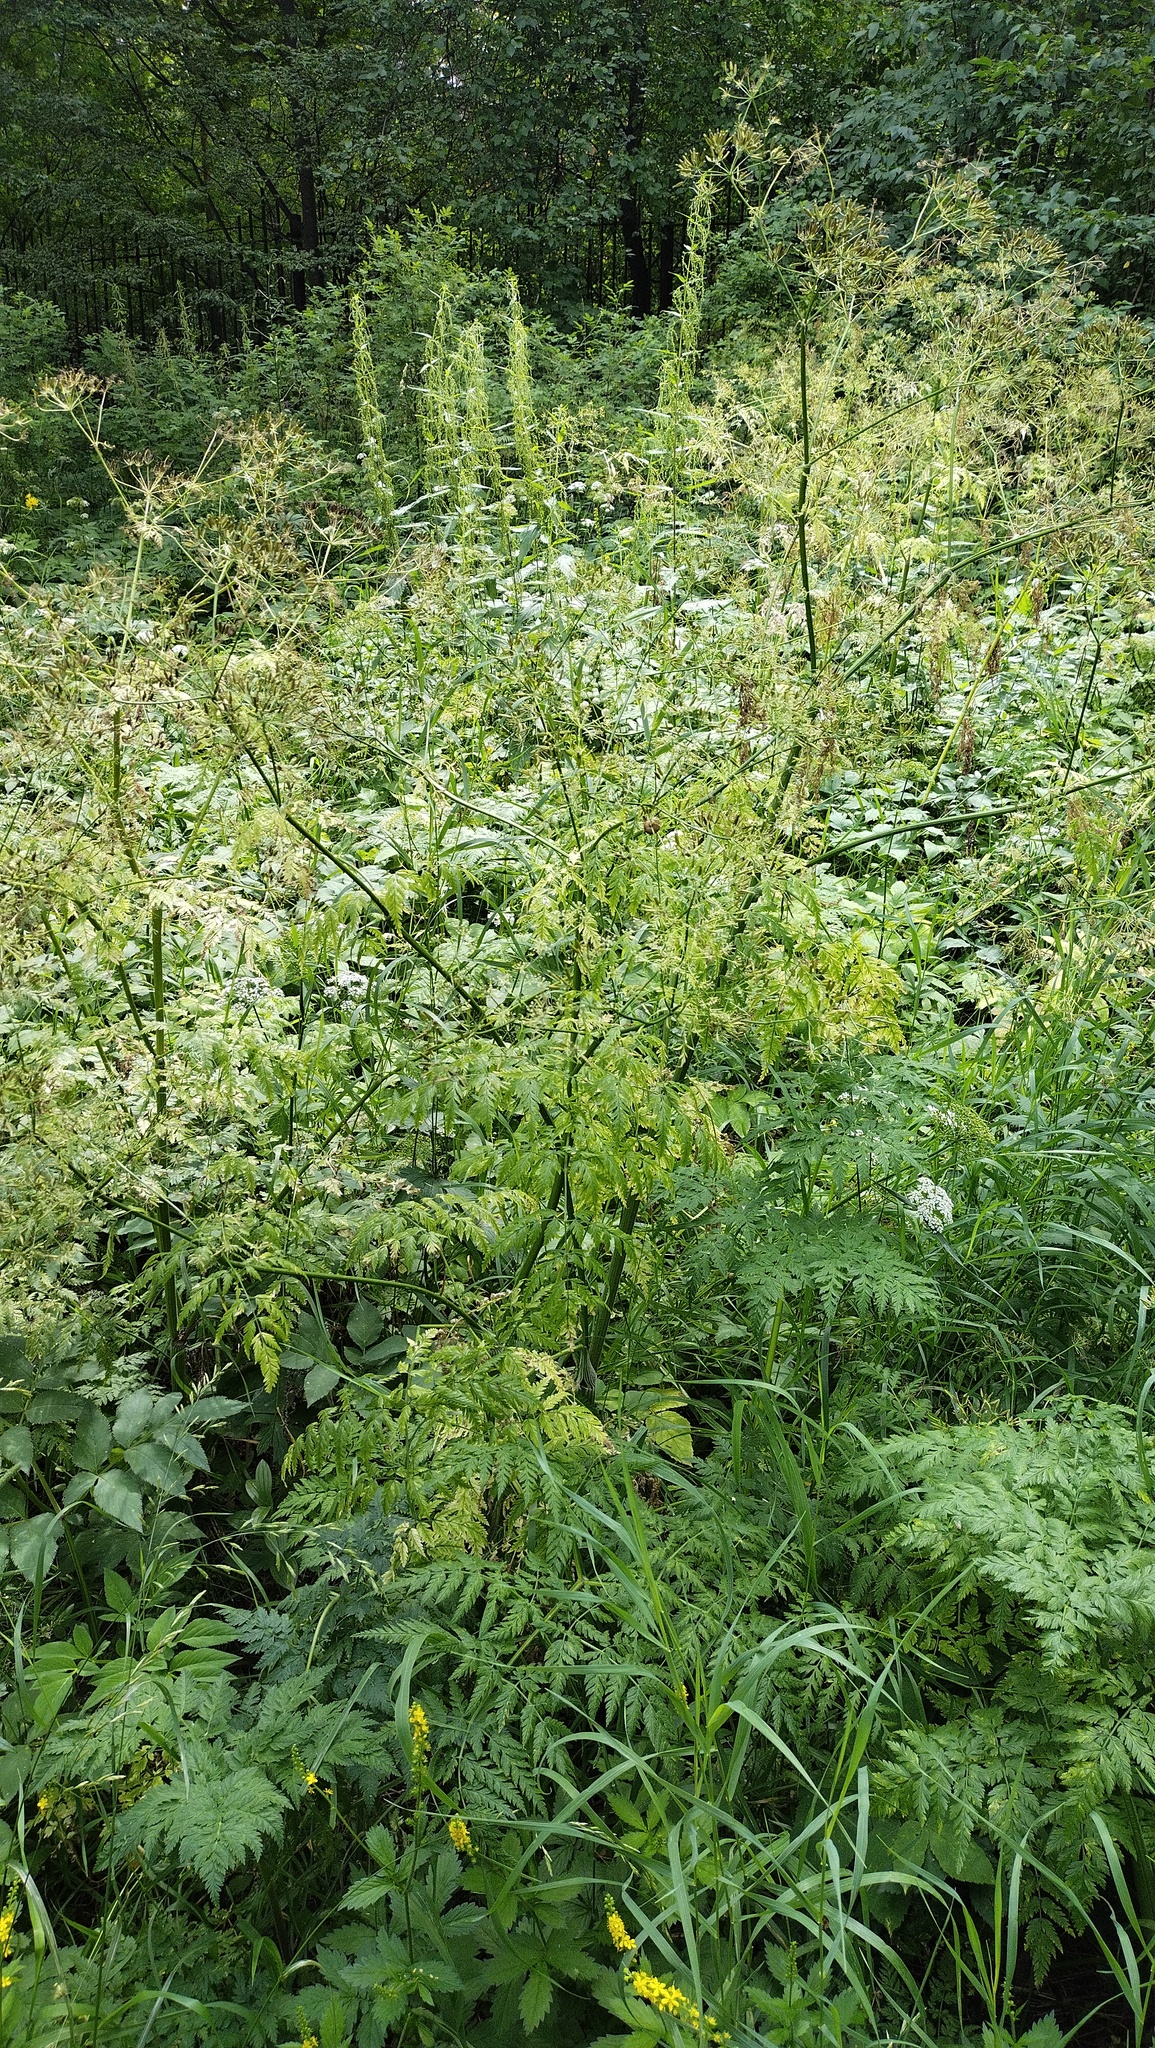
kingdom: Plantae
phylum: Tracheophyta
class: Magnoliopsida
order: Apiales
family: Apiaceae
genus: Anthriscus
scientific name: Anthriscus sylvestris
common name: Cow parsley
